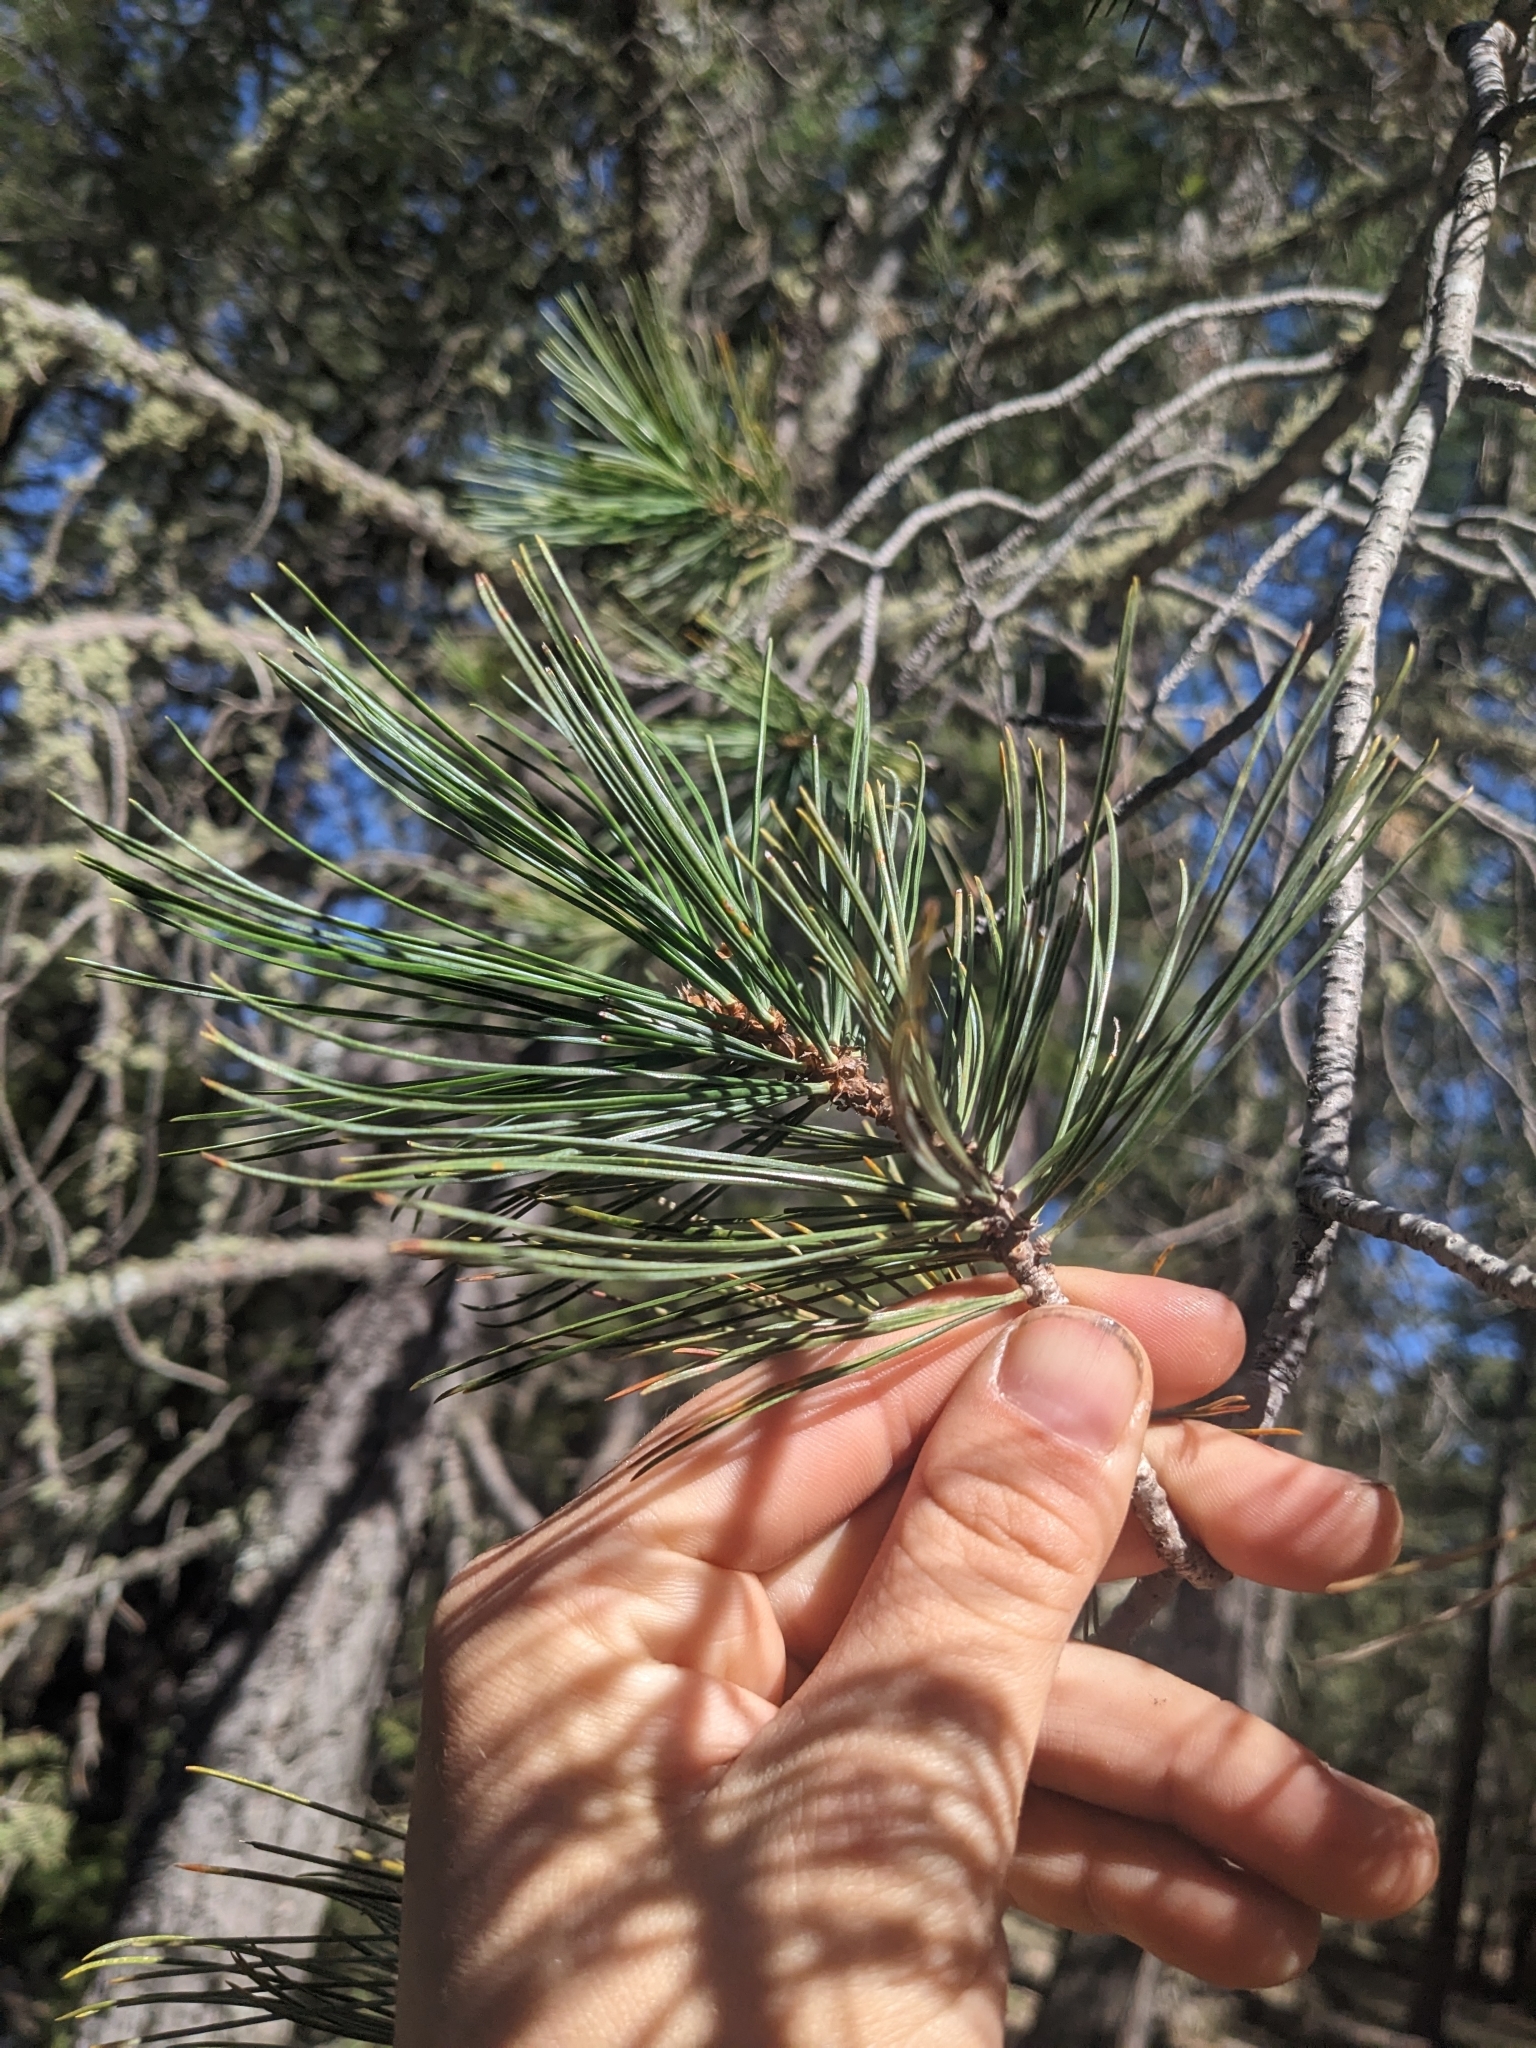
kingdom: Plantae
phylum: Tracheophyta
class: Pinopsida
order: Pinales
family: Pinaceae
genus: Pinus
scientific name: Pinus strobiformis
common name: Southwestern white pine
